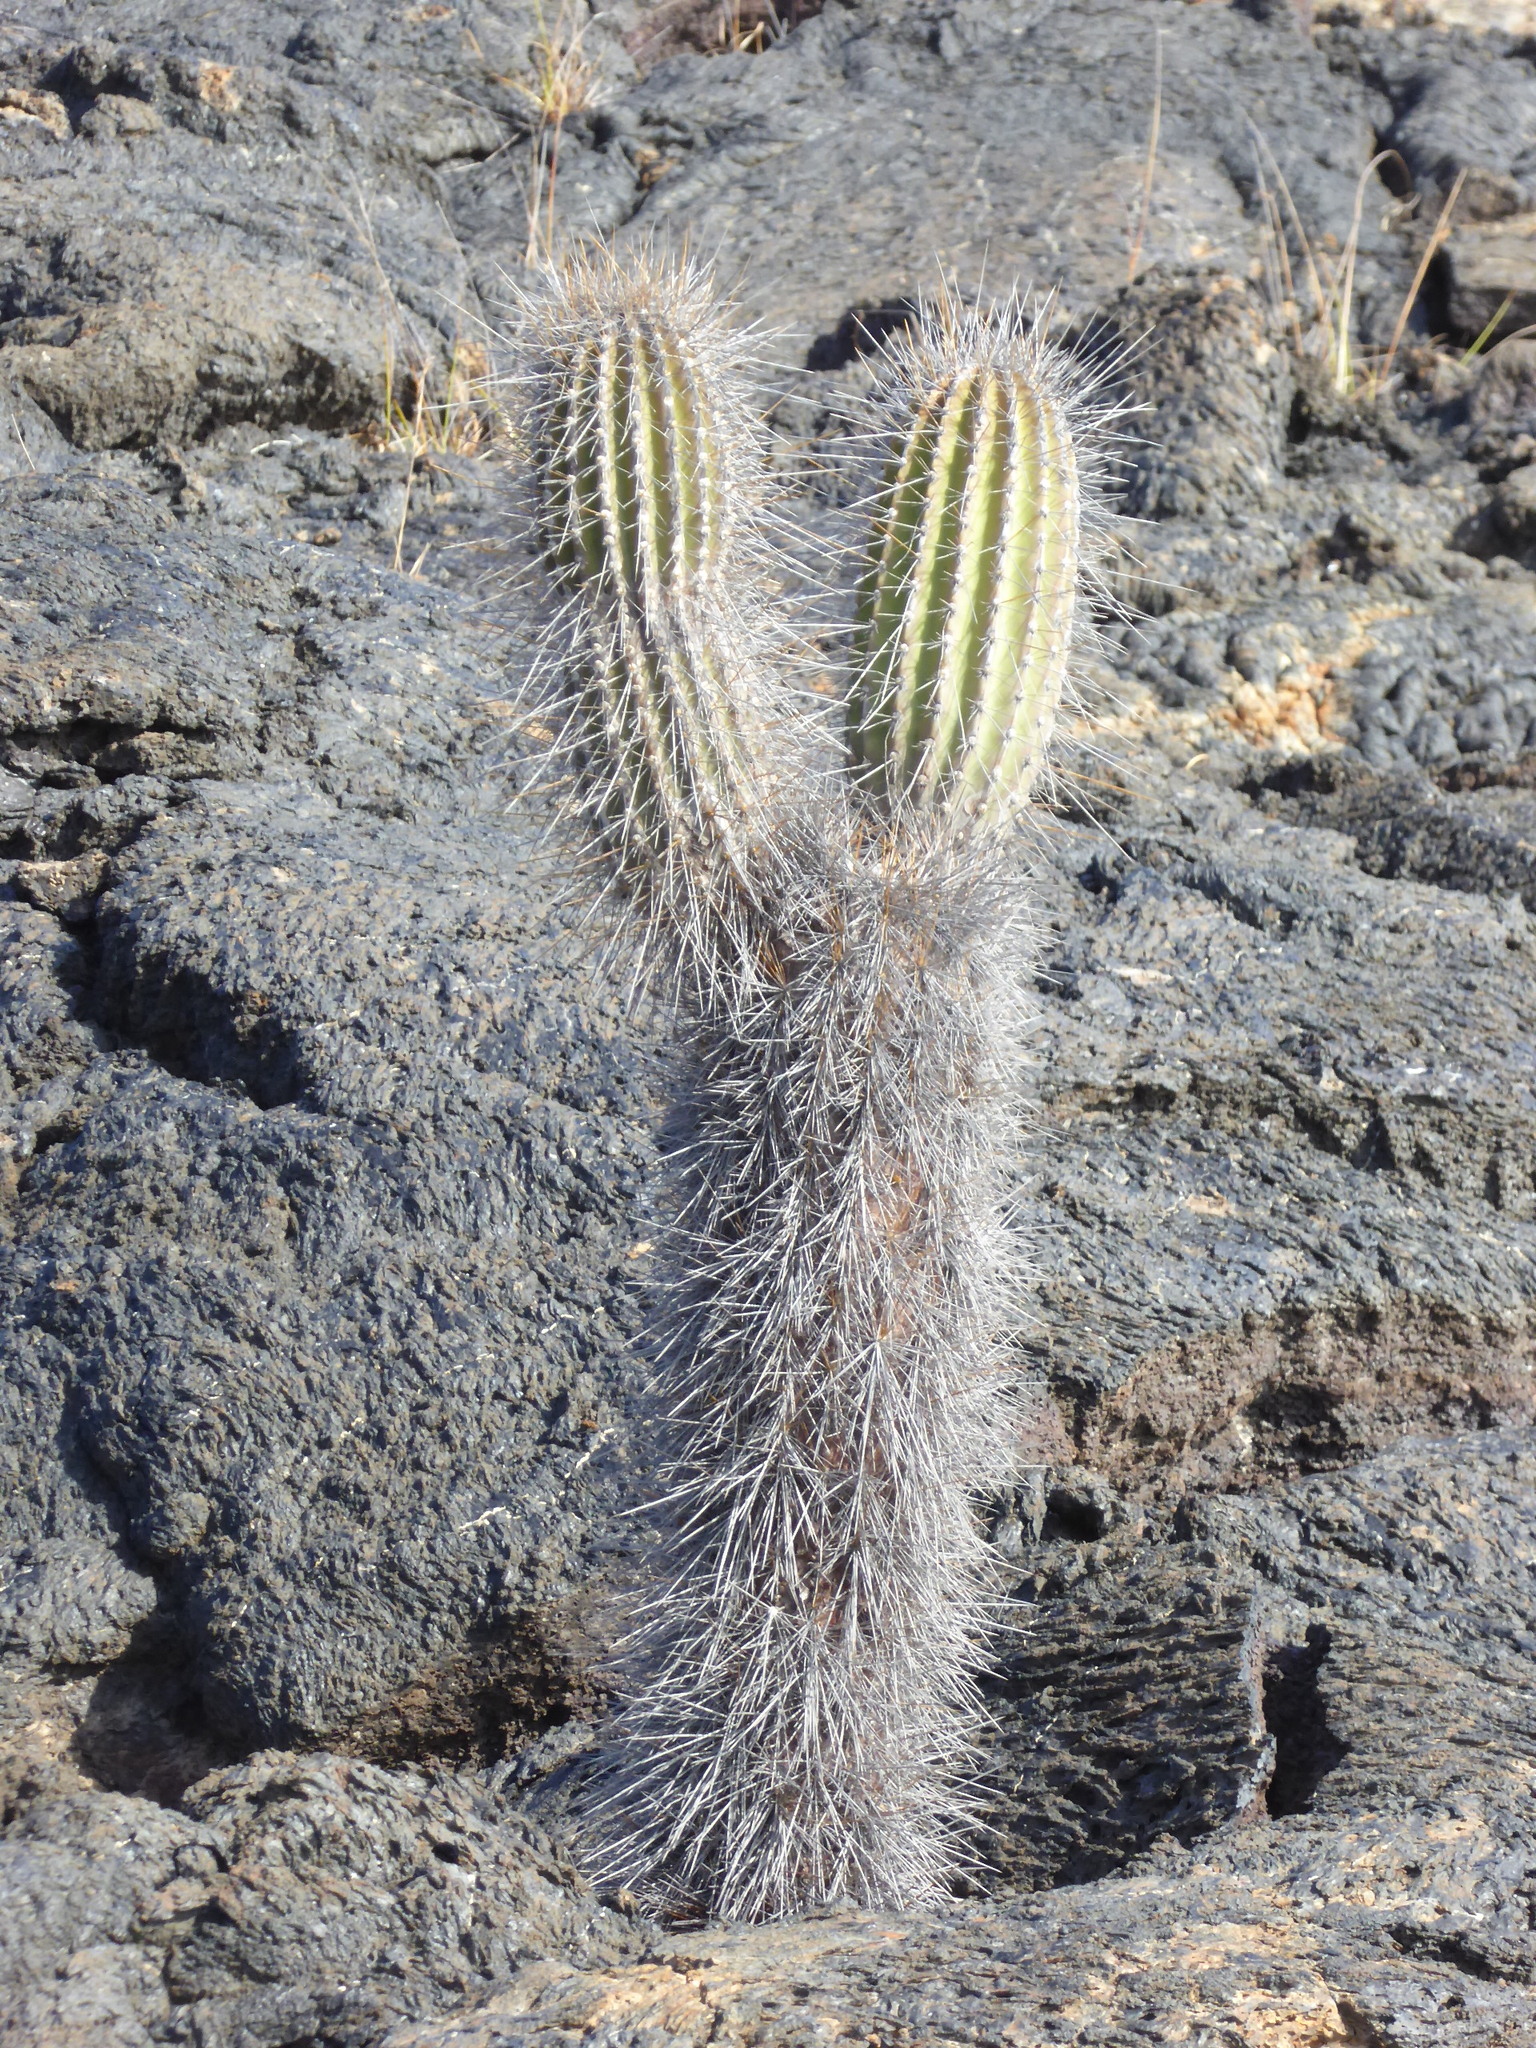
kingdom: Plantae
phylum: Tracheophyta
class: Magnoliopsida
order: Caryophyllales
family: Cactaceae
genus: Jasminocereus
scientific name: Jasminocereus thouarsii
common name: Candelabra cactus
